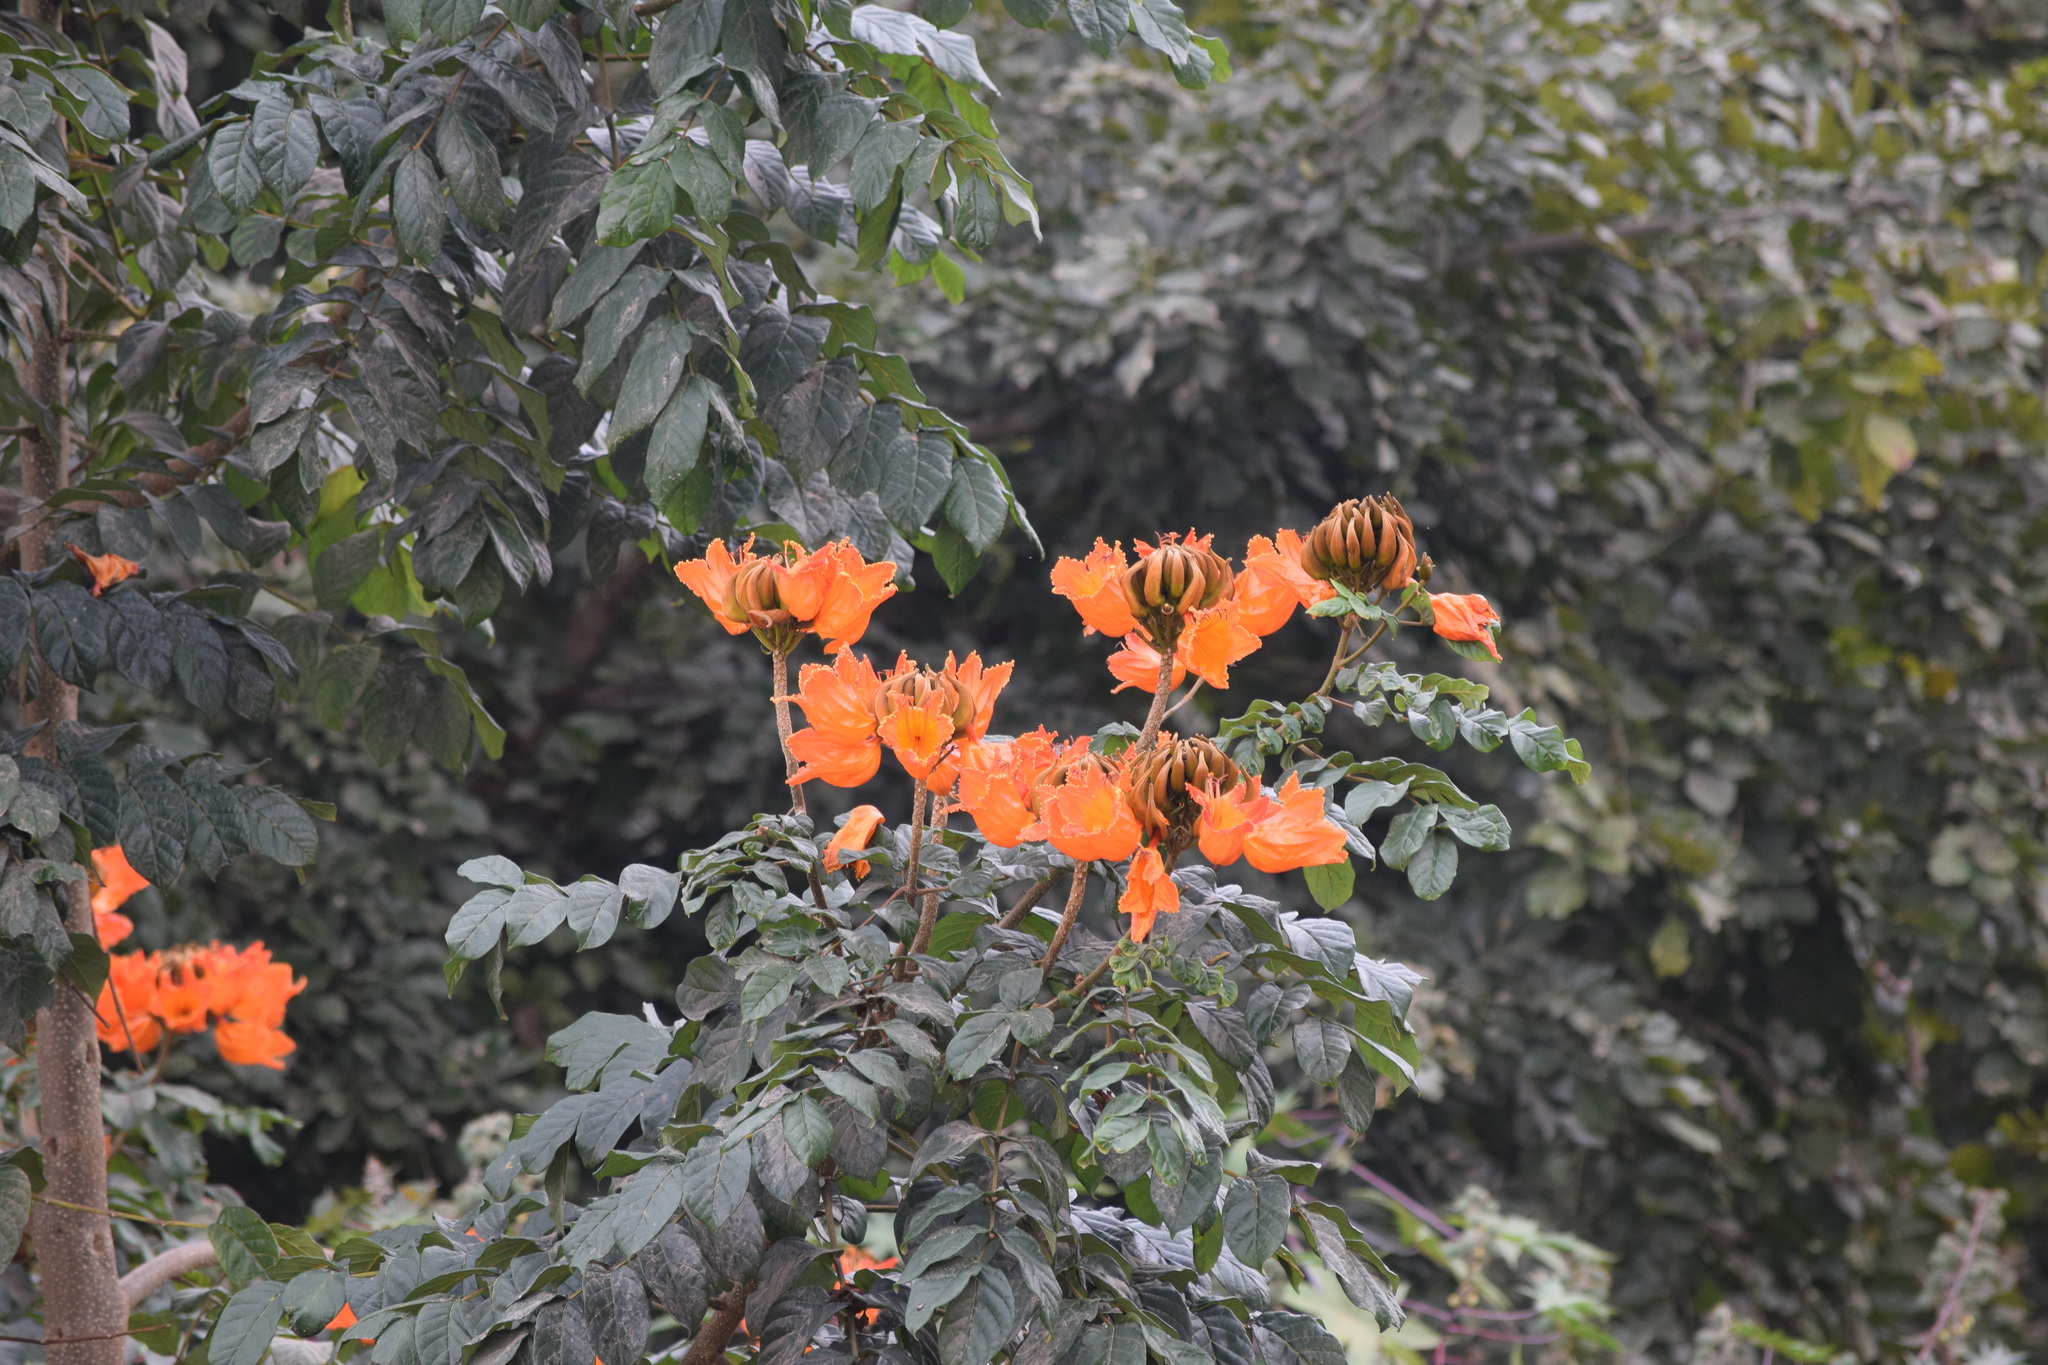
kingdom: Plantae
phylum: Tracheophyta
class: Magnoliopsida
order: Lamiales
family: Bignoniaceae
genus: Spathodea
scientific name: Spathodea campanulata
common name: African tuliptree
